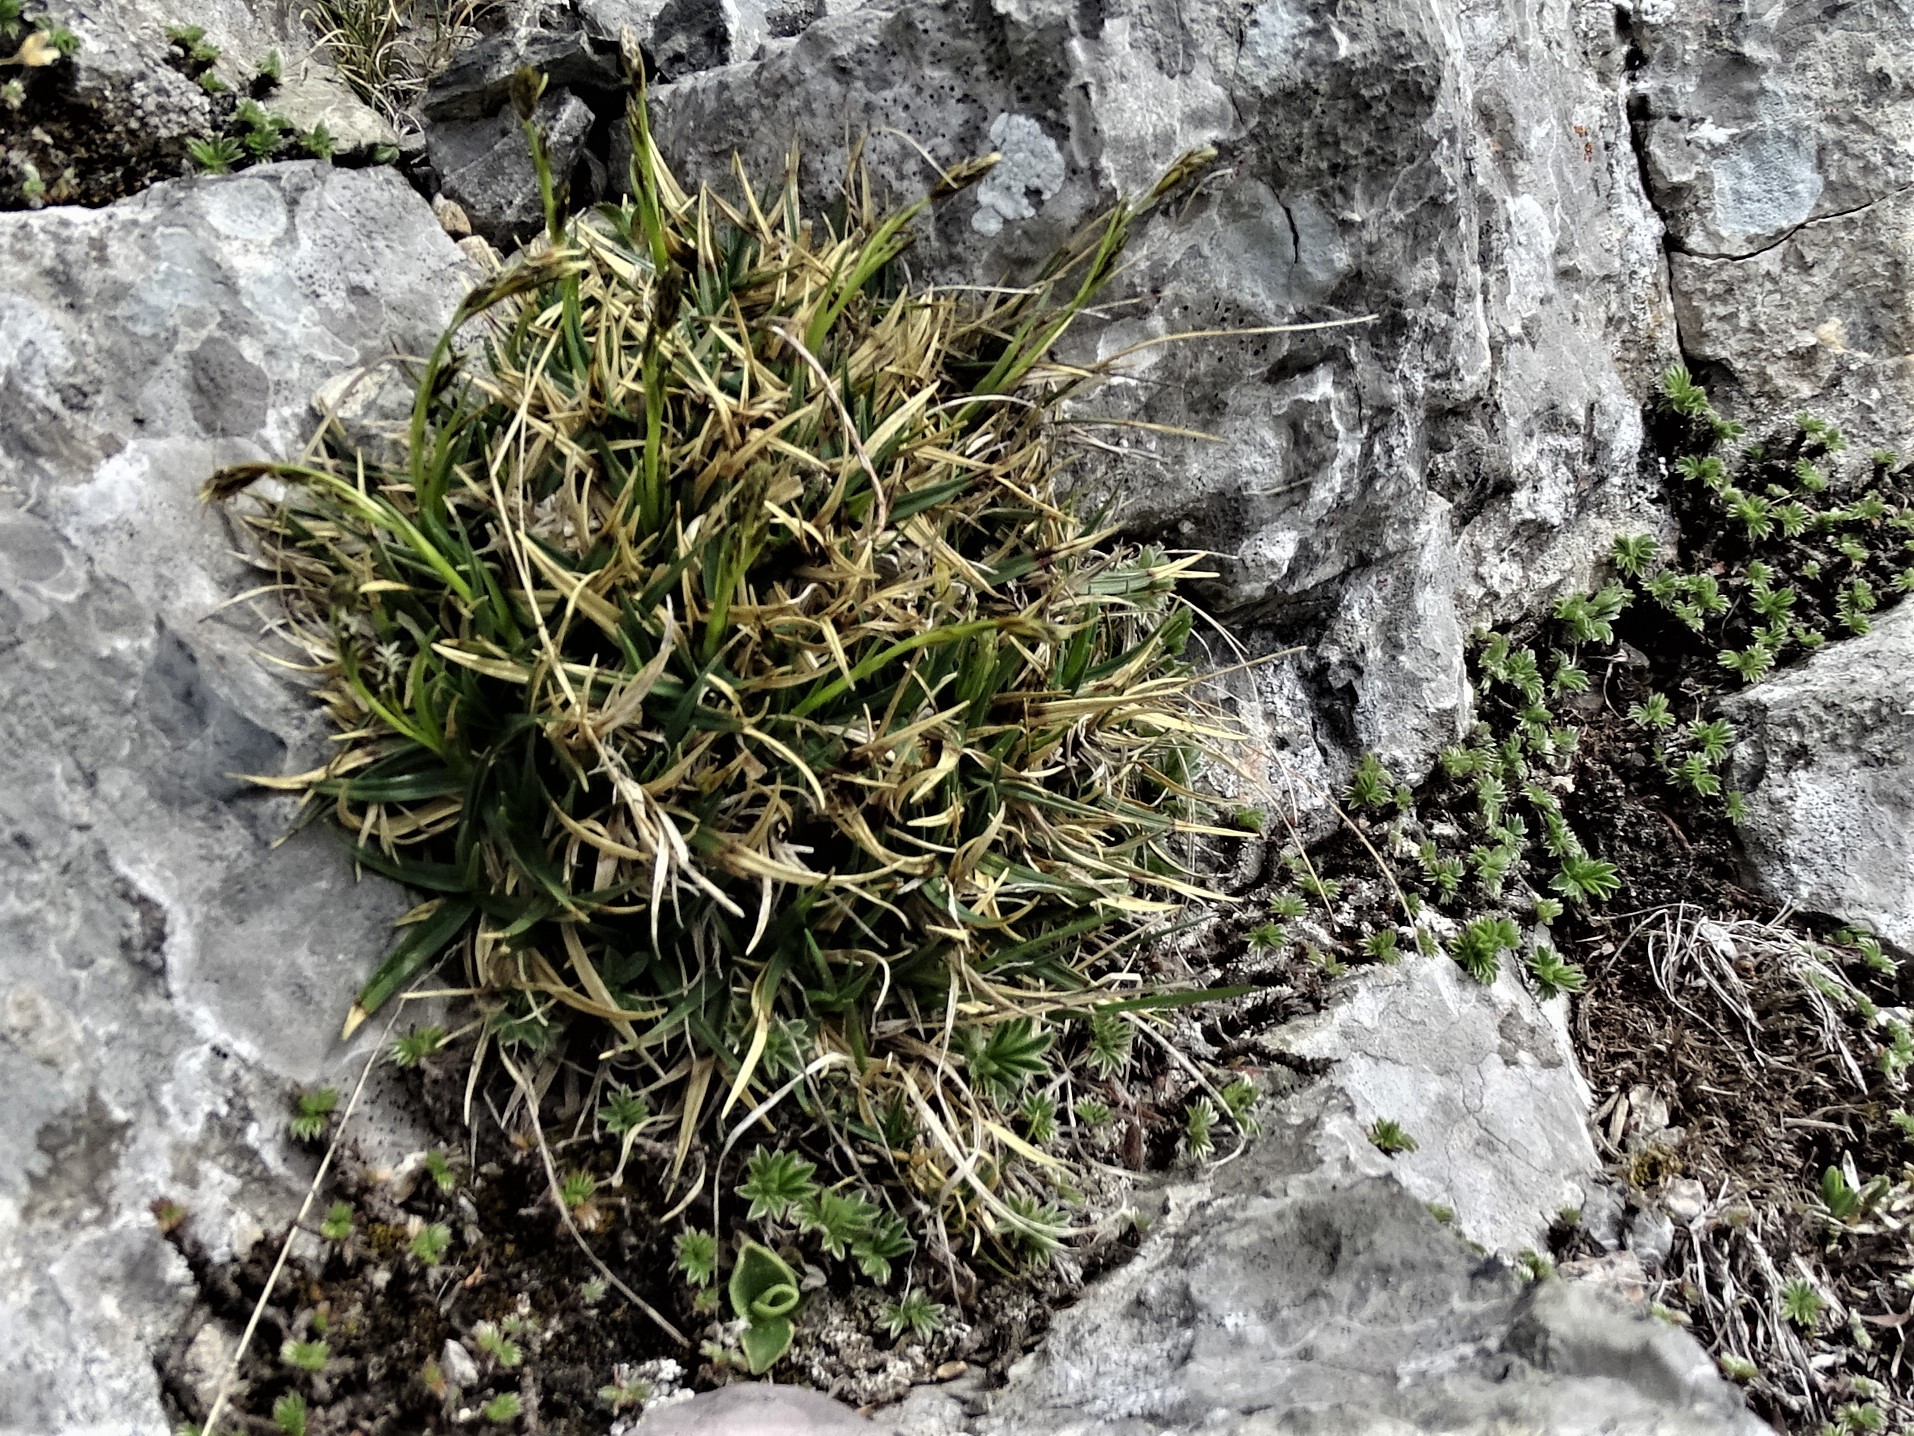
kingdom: Plantae
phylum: Tracheophyta
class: Liliopsida
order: Poales
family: Cyperaceae
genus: Carex
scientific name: Carex firma
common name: Dwarf pillow sedge
